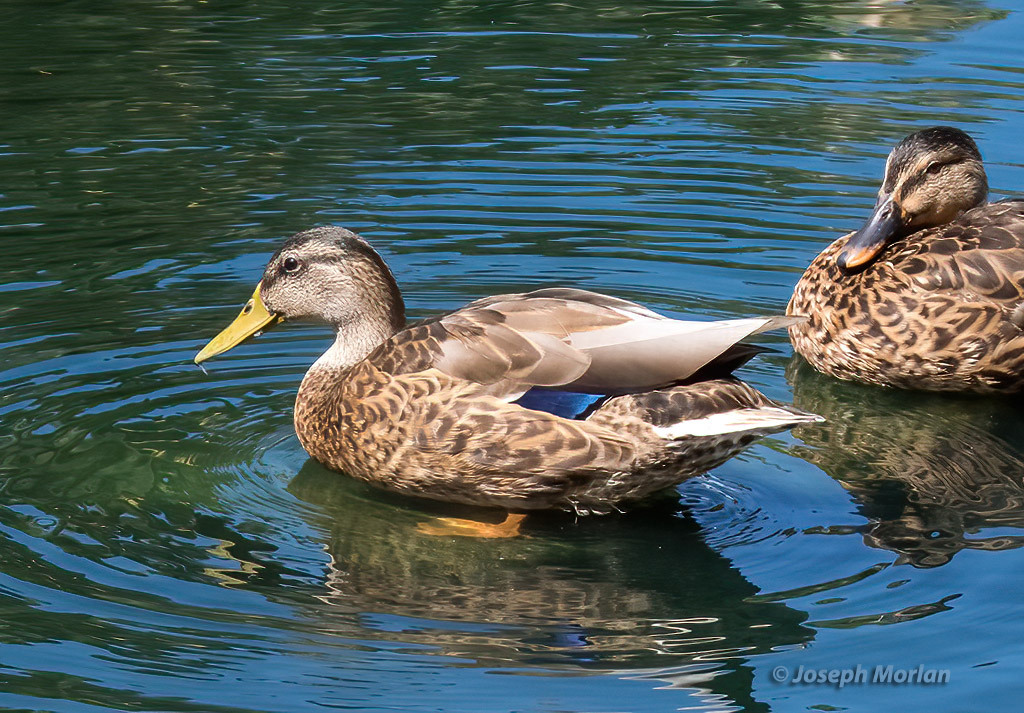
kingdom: Animalia
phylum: Chordata
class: Aves
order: Anseriformes
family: Anatidae
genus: Anas
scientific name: Anas
